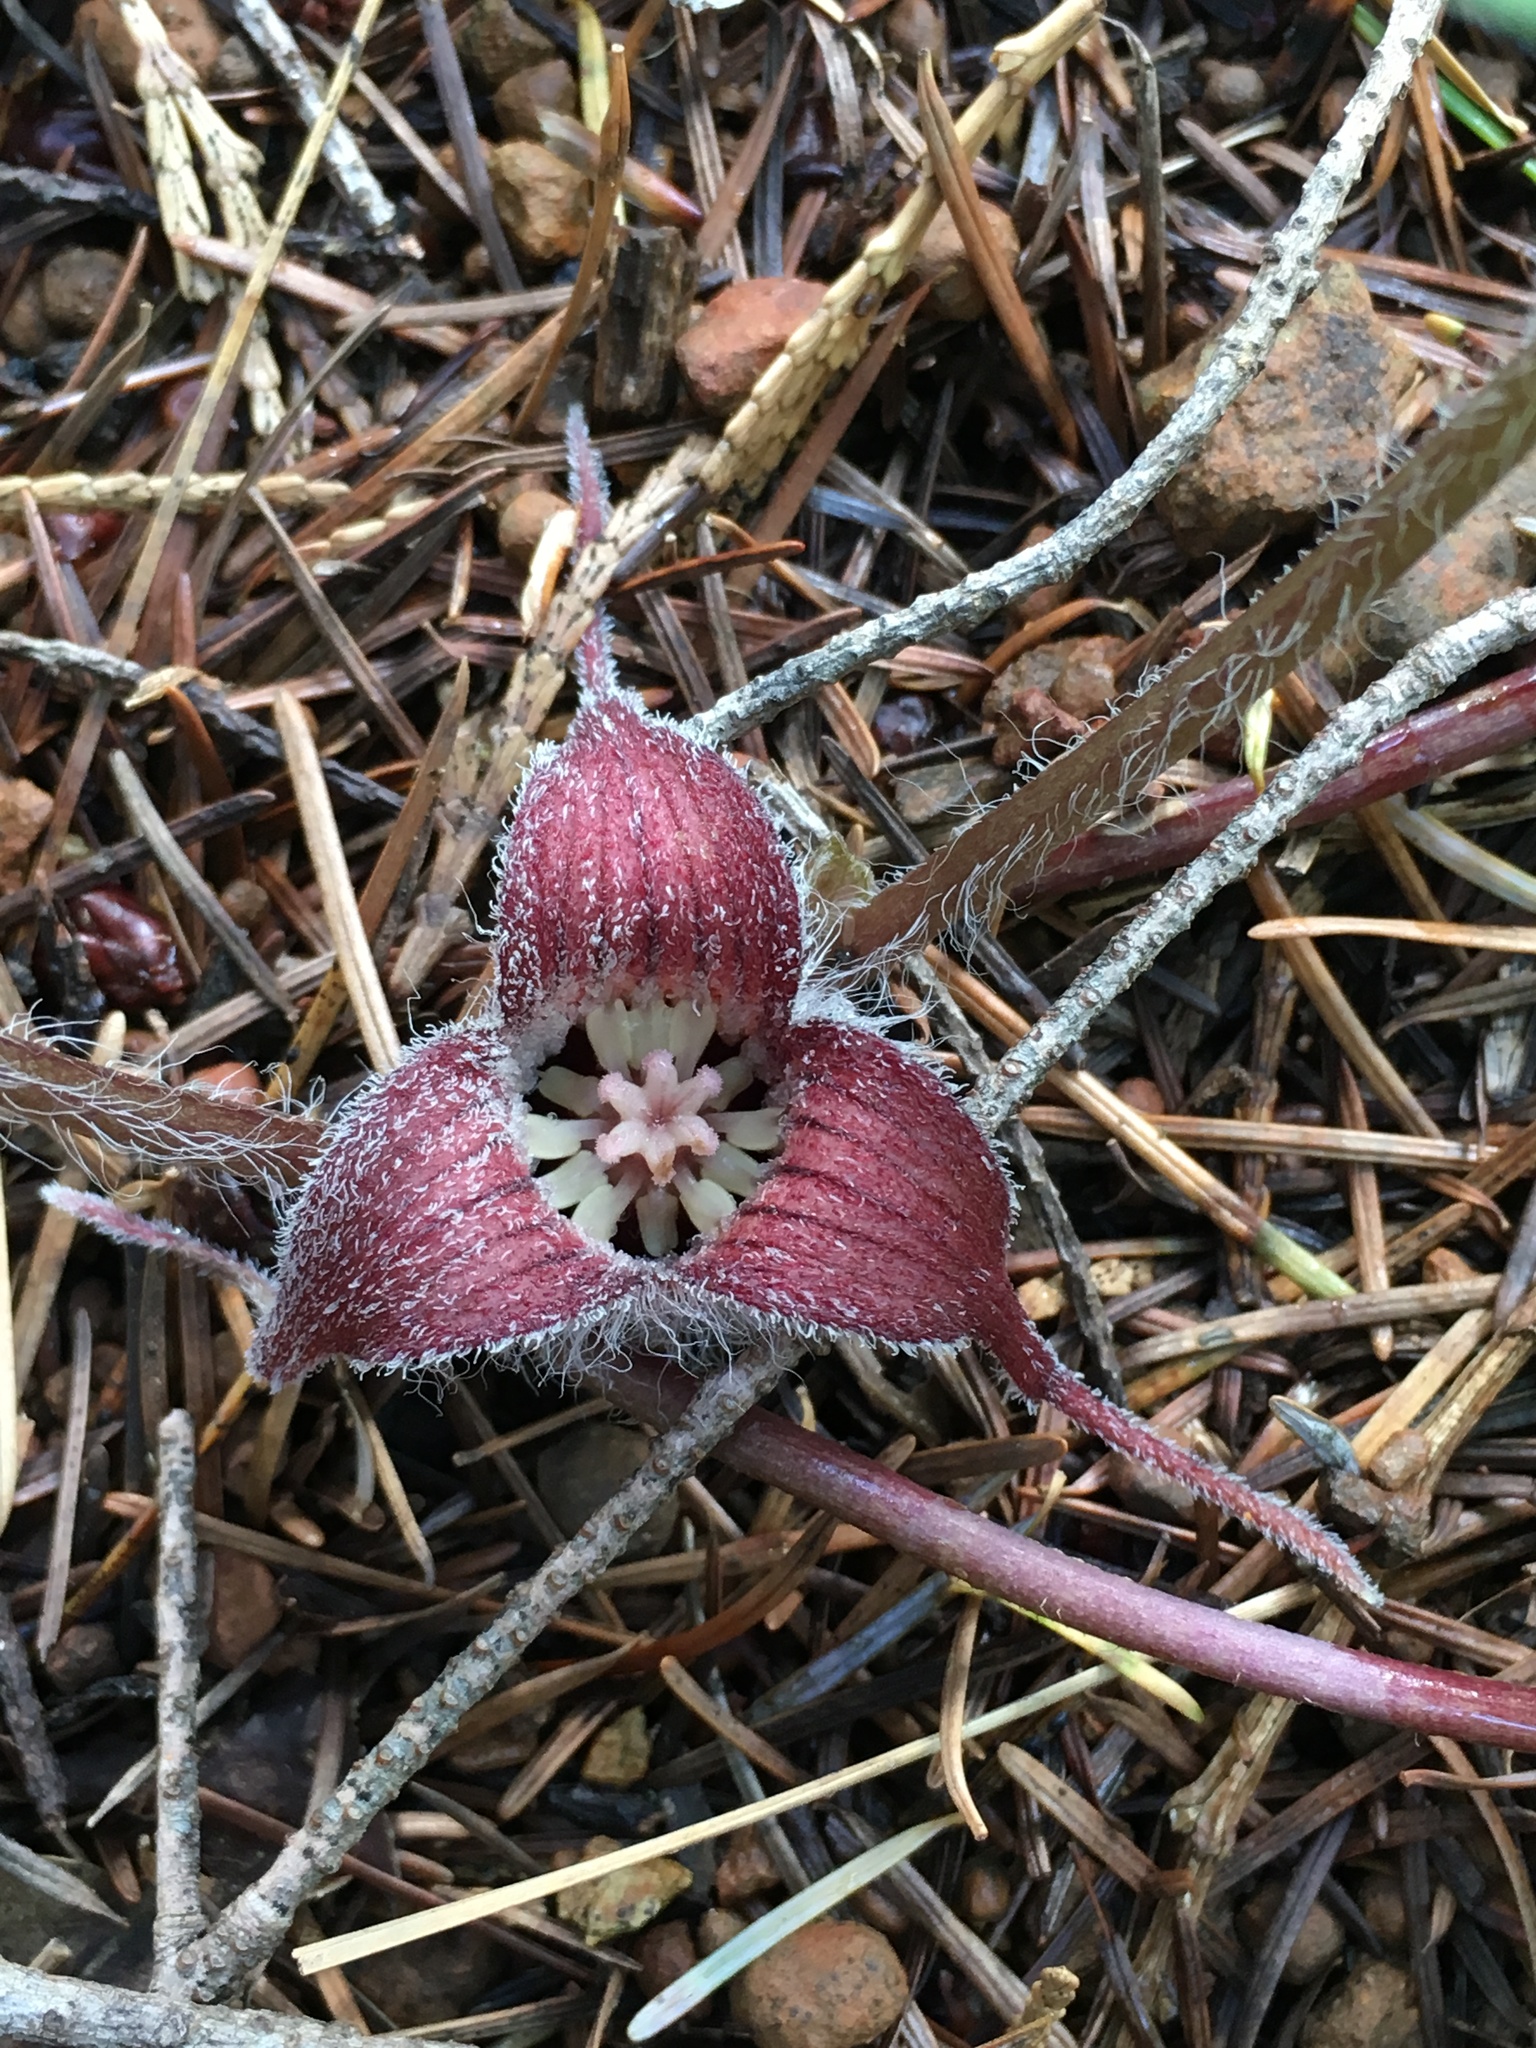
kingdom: Plantae
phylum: Tracheophyta
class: Magnoliopsida
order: Piperales
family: Aristolochiaceae
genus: Asarum
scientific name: Asarum hartwegii
